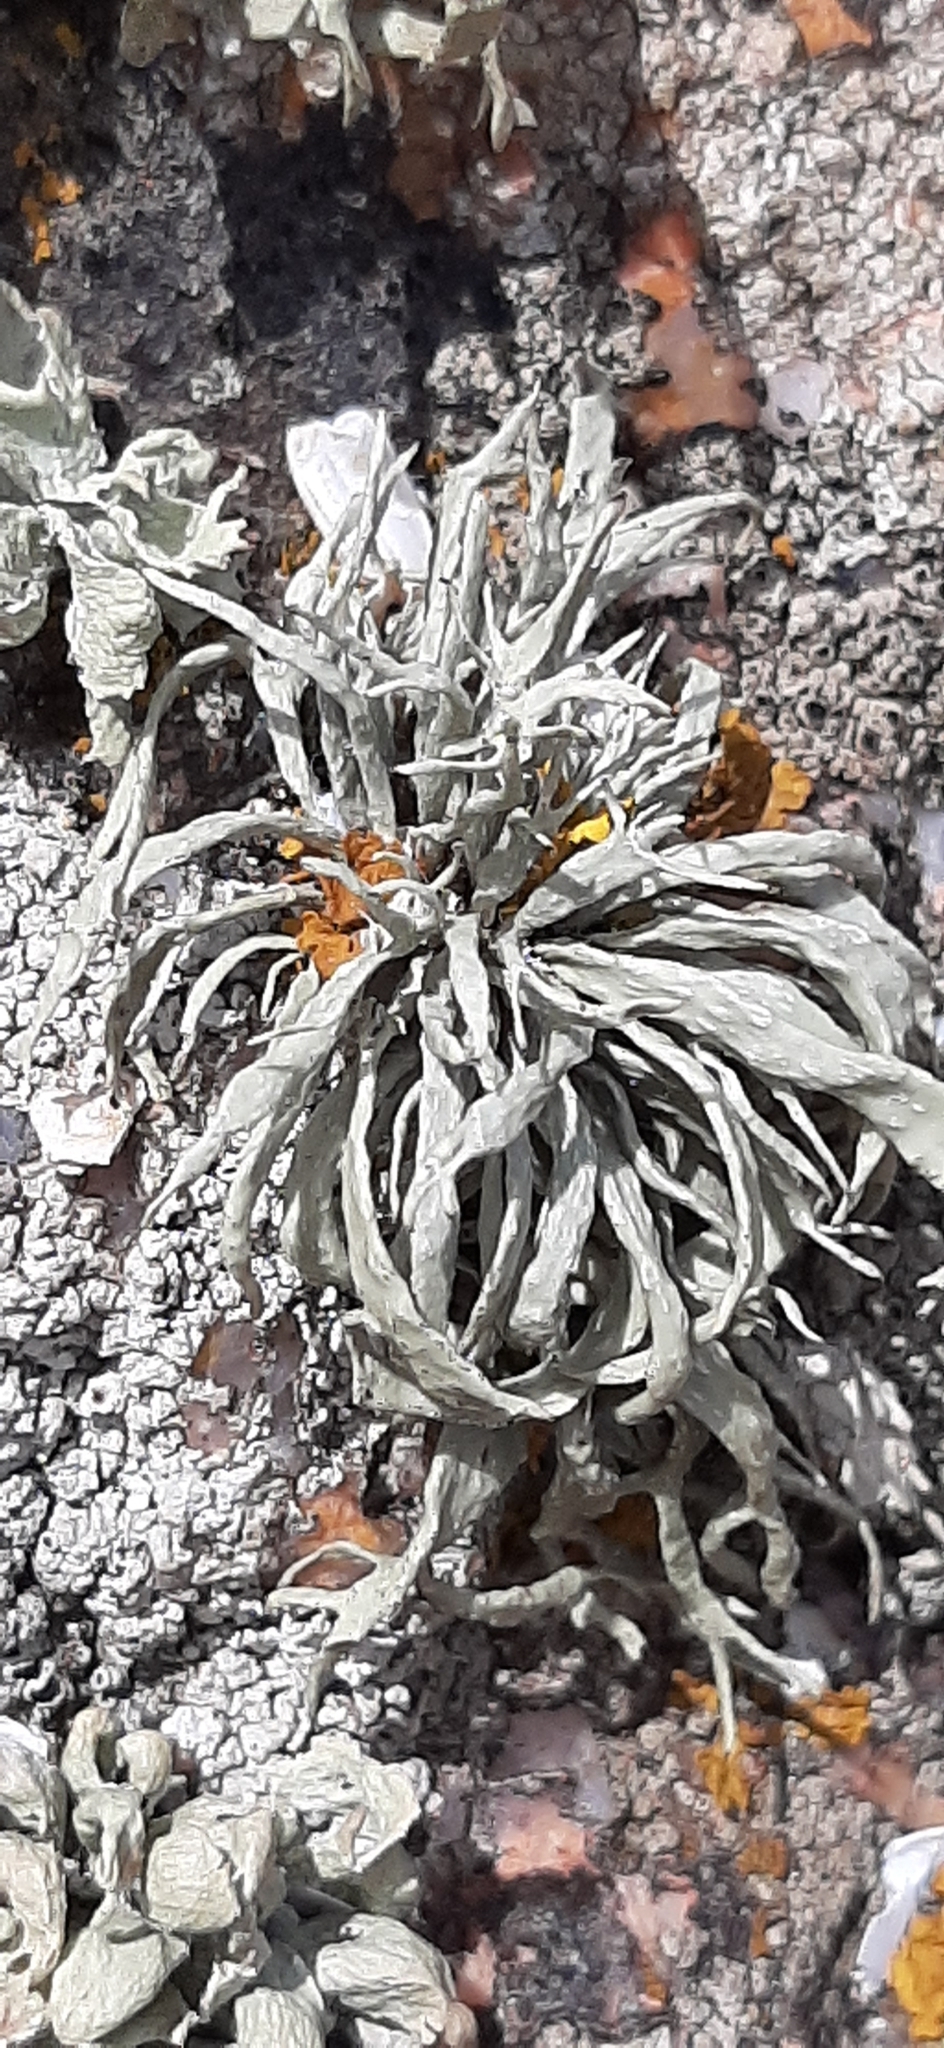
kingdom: Fungi
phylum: Ascomycota
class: Lecanoromycetes
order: Lecanorales
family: Ramalinaceae
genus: Ramalina
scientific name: Ramalina siliquosa
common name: Sea ivory
